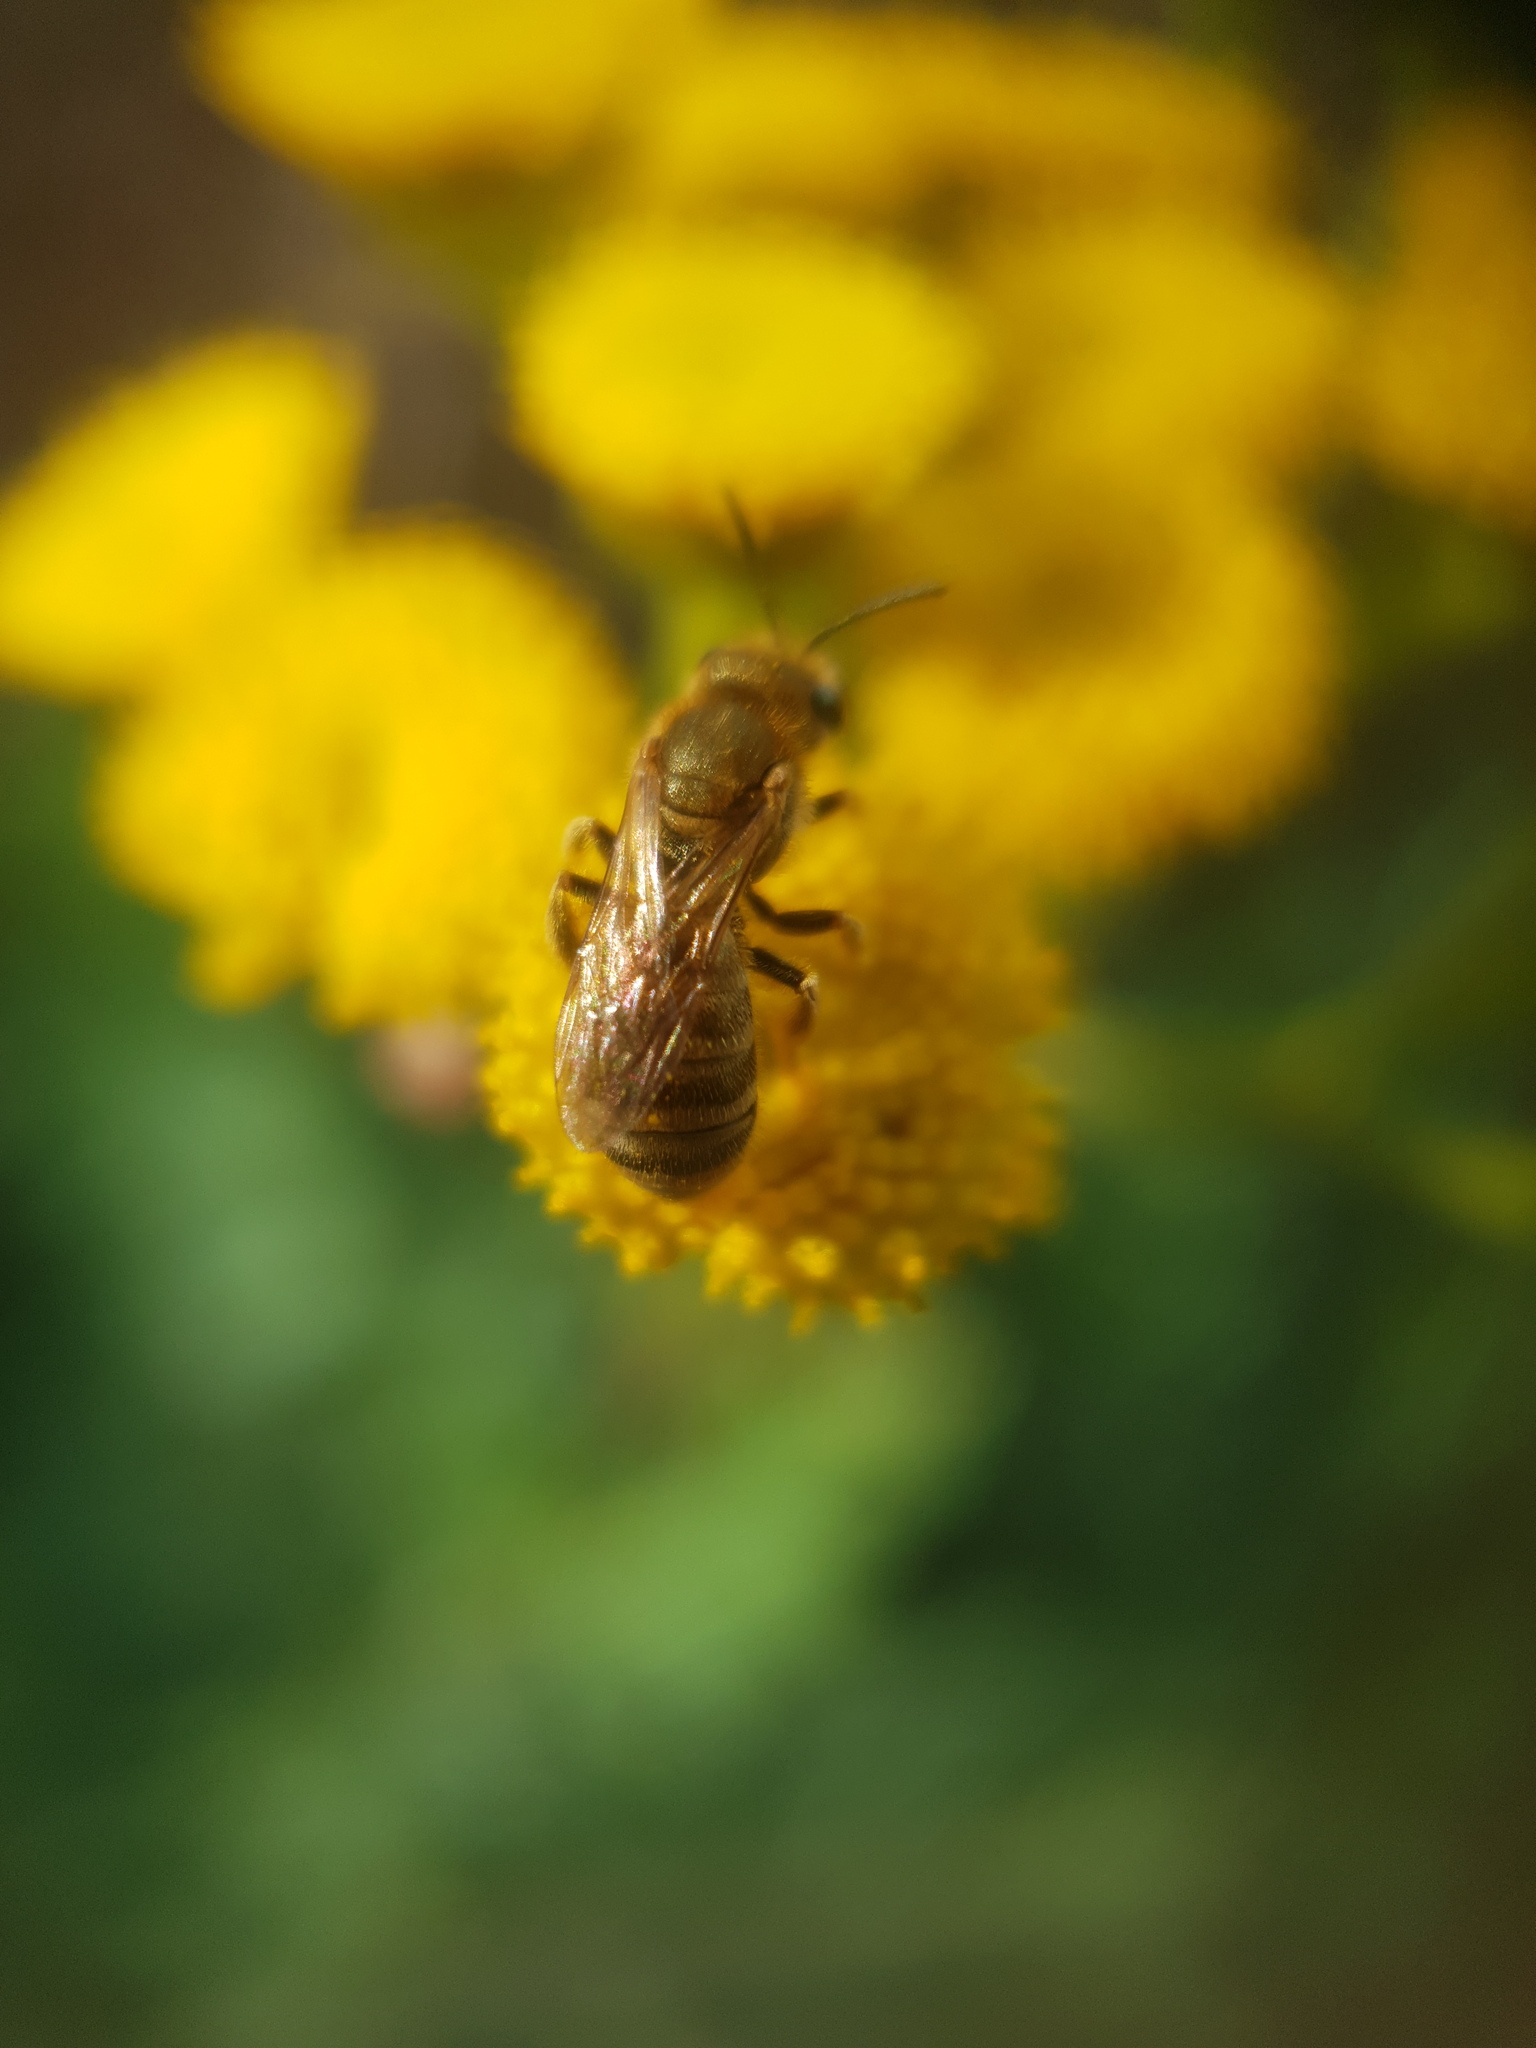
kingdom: Animalia
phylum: Arthropoda
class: Insecta
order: Hymenoptera
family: Halictidae
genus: Halictus
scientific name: Halictus subauratus
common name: Golden furrow bee
